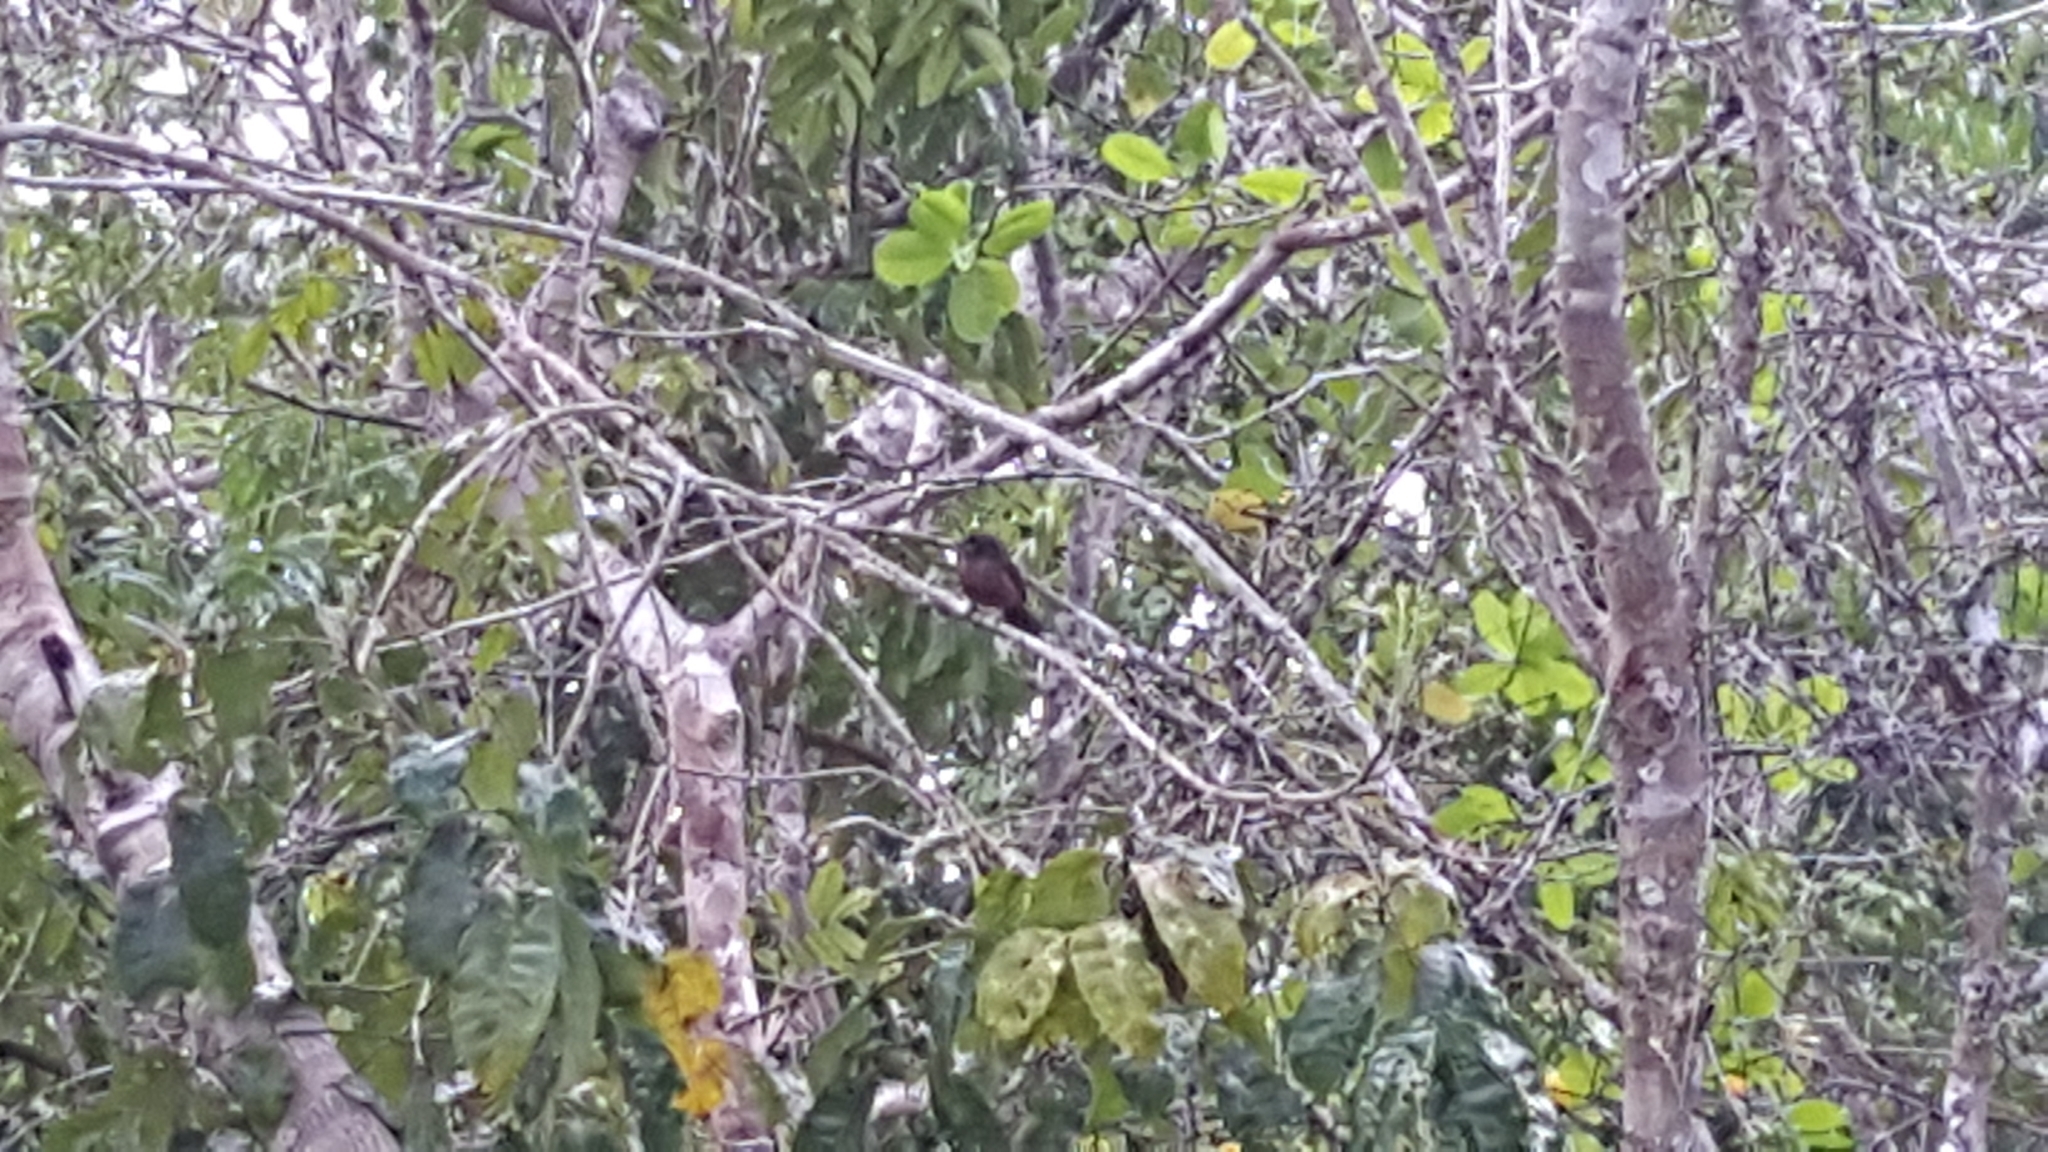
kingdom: Animalia
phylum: Chordata
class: Aves
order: Passeriformes
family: Thraupidae
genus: Ramphocelus
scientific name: Ramphocelus carbo
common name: Silver-beaked tanager
